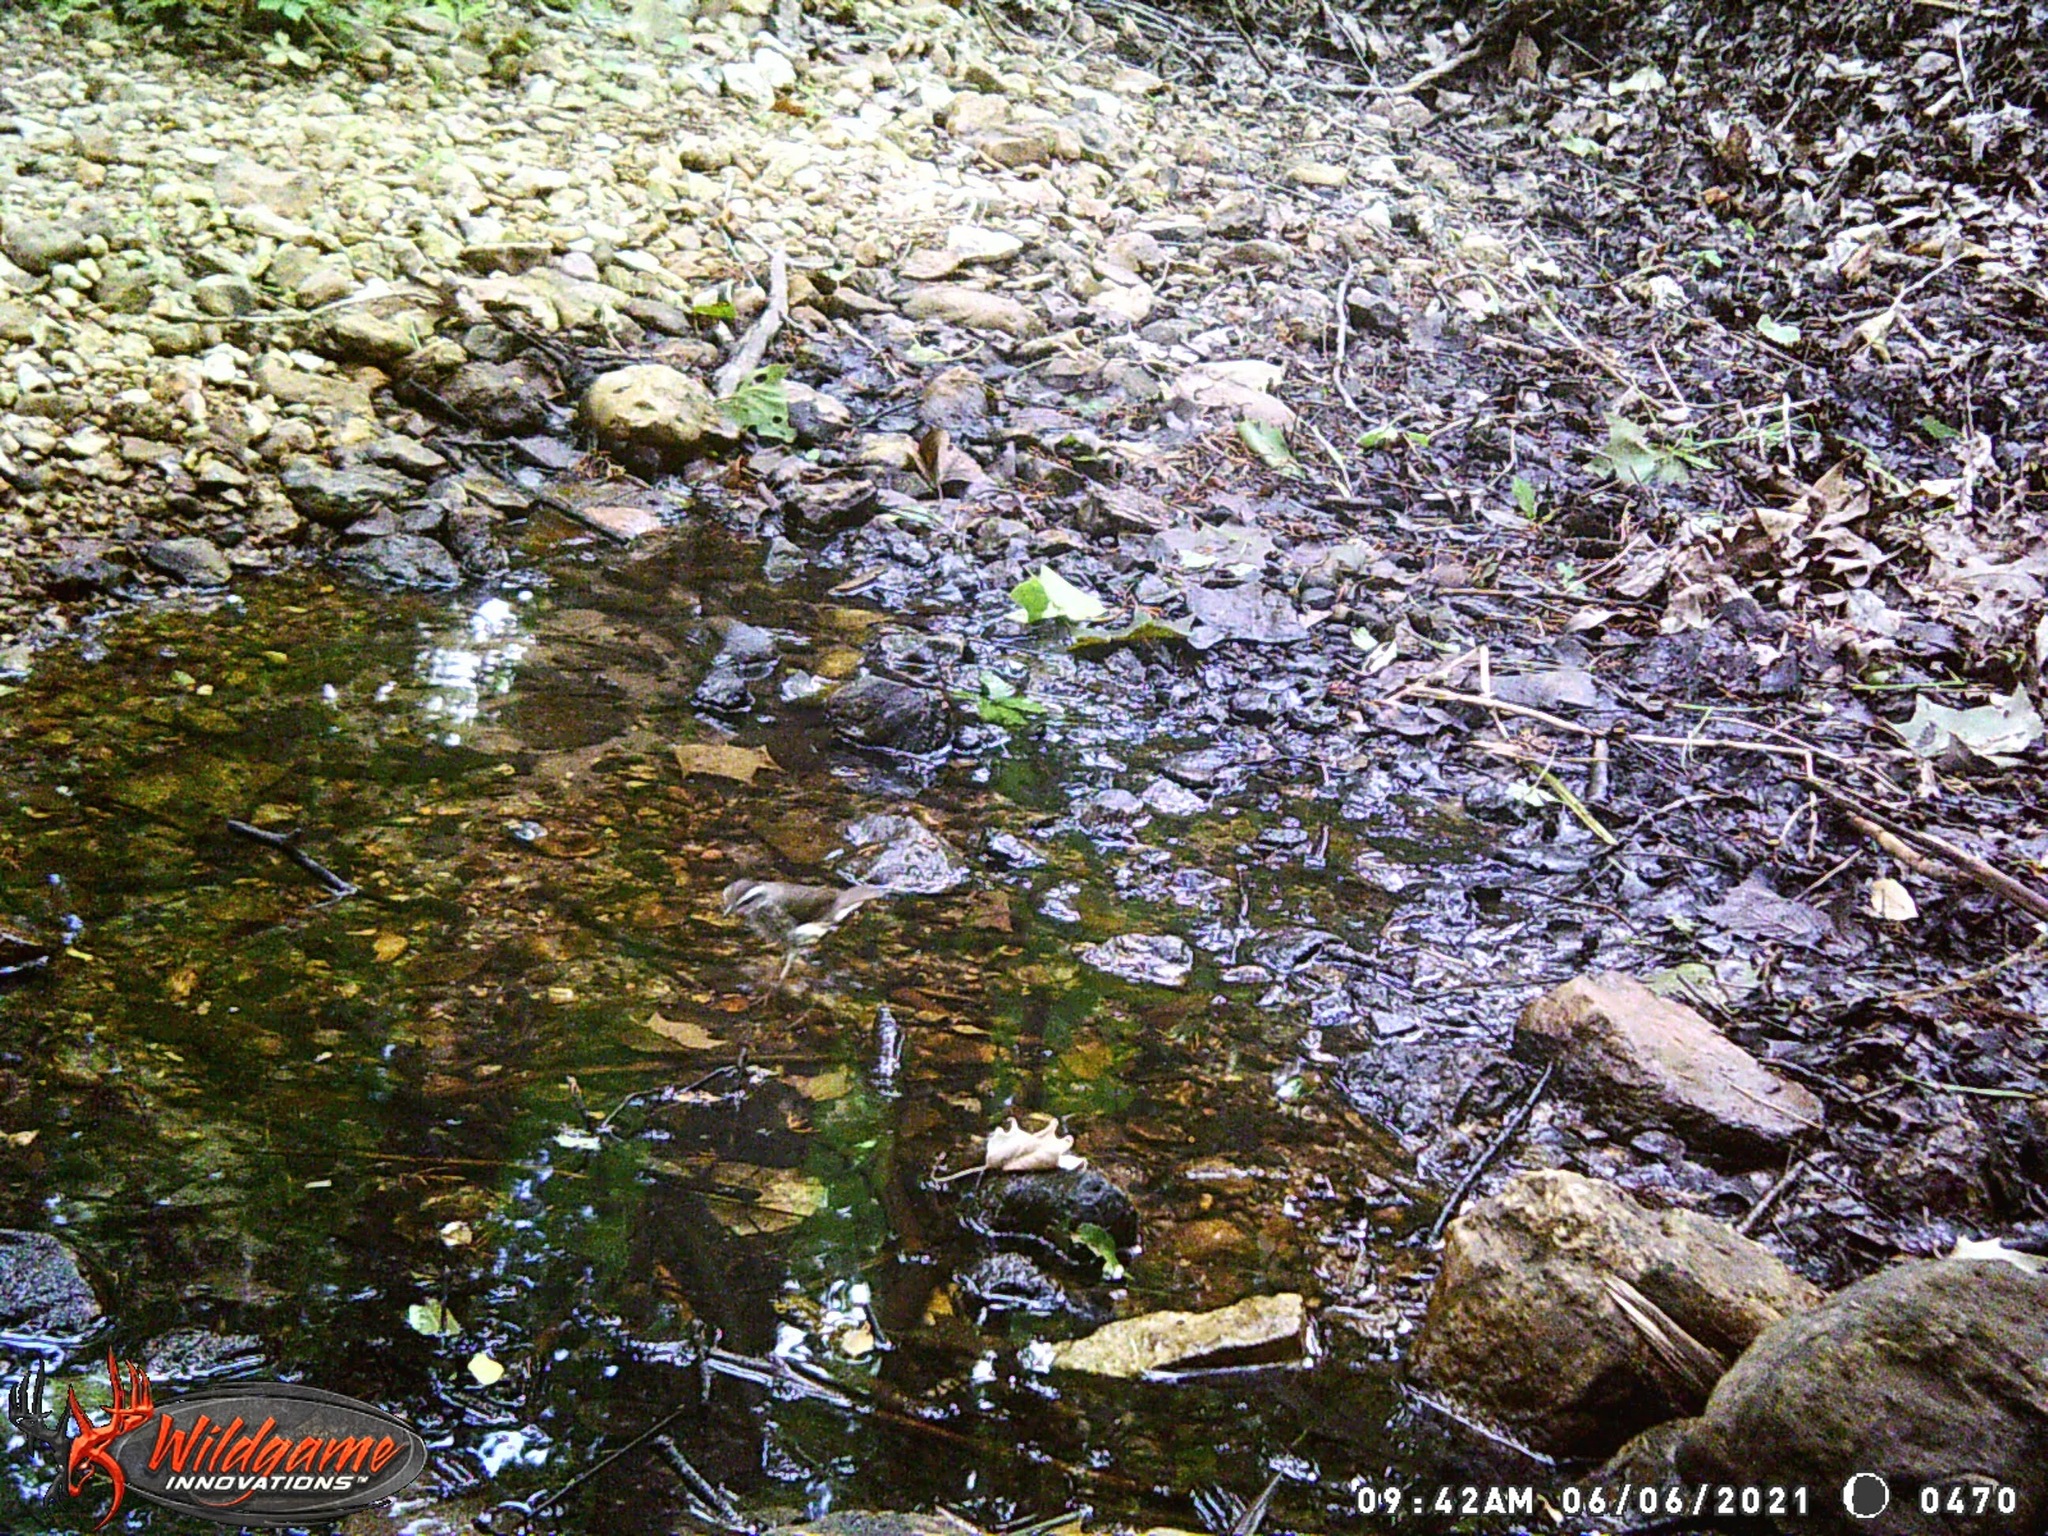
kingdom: Animalia
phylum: Chordata
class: Aves
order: Passeriformes
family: Parulidae
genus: Parkesia
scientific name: Parkesia motacilla
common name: Louisiana waterthrush
